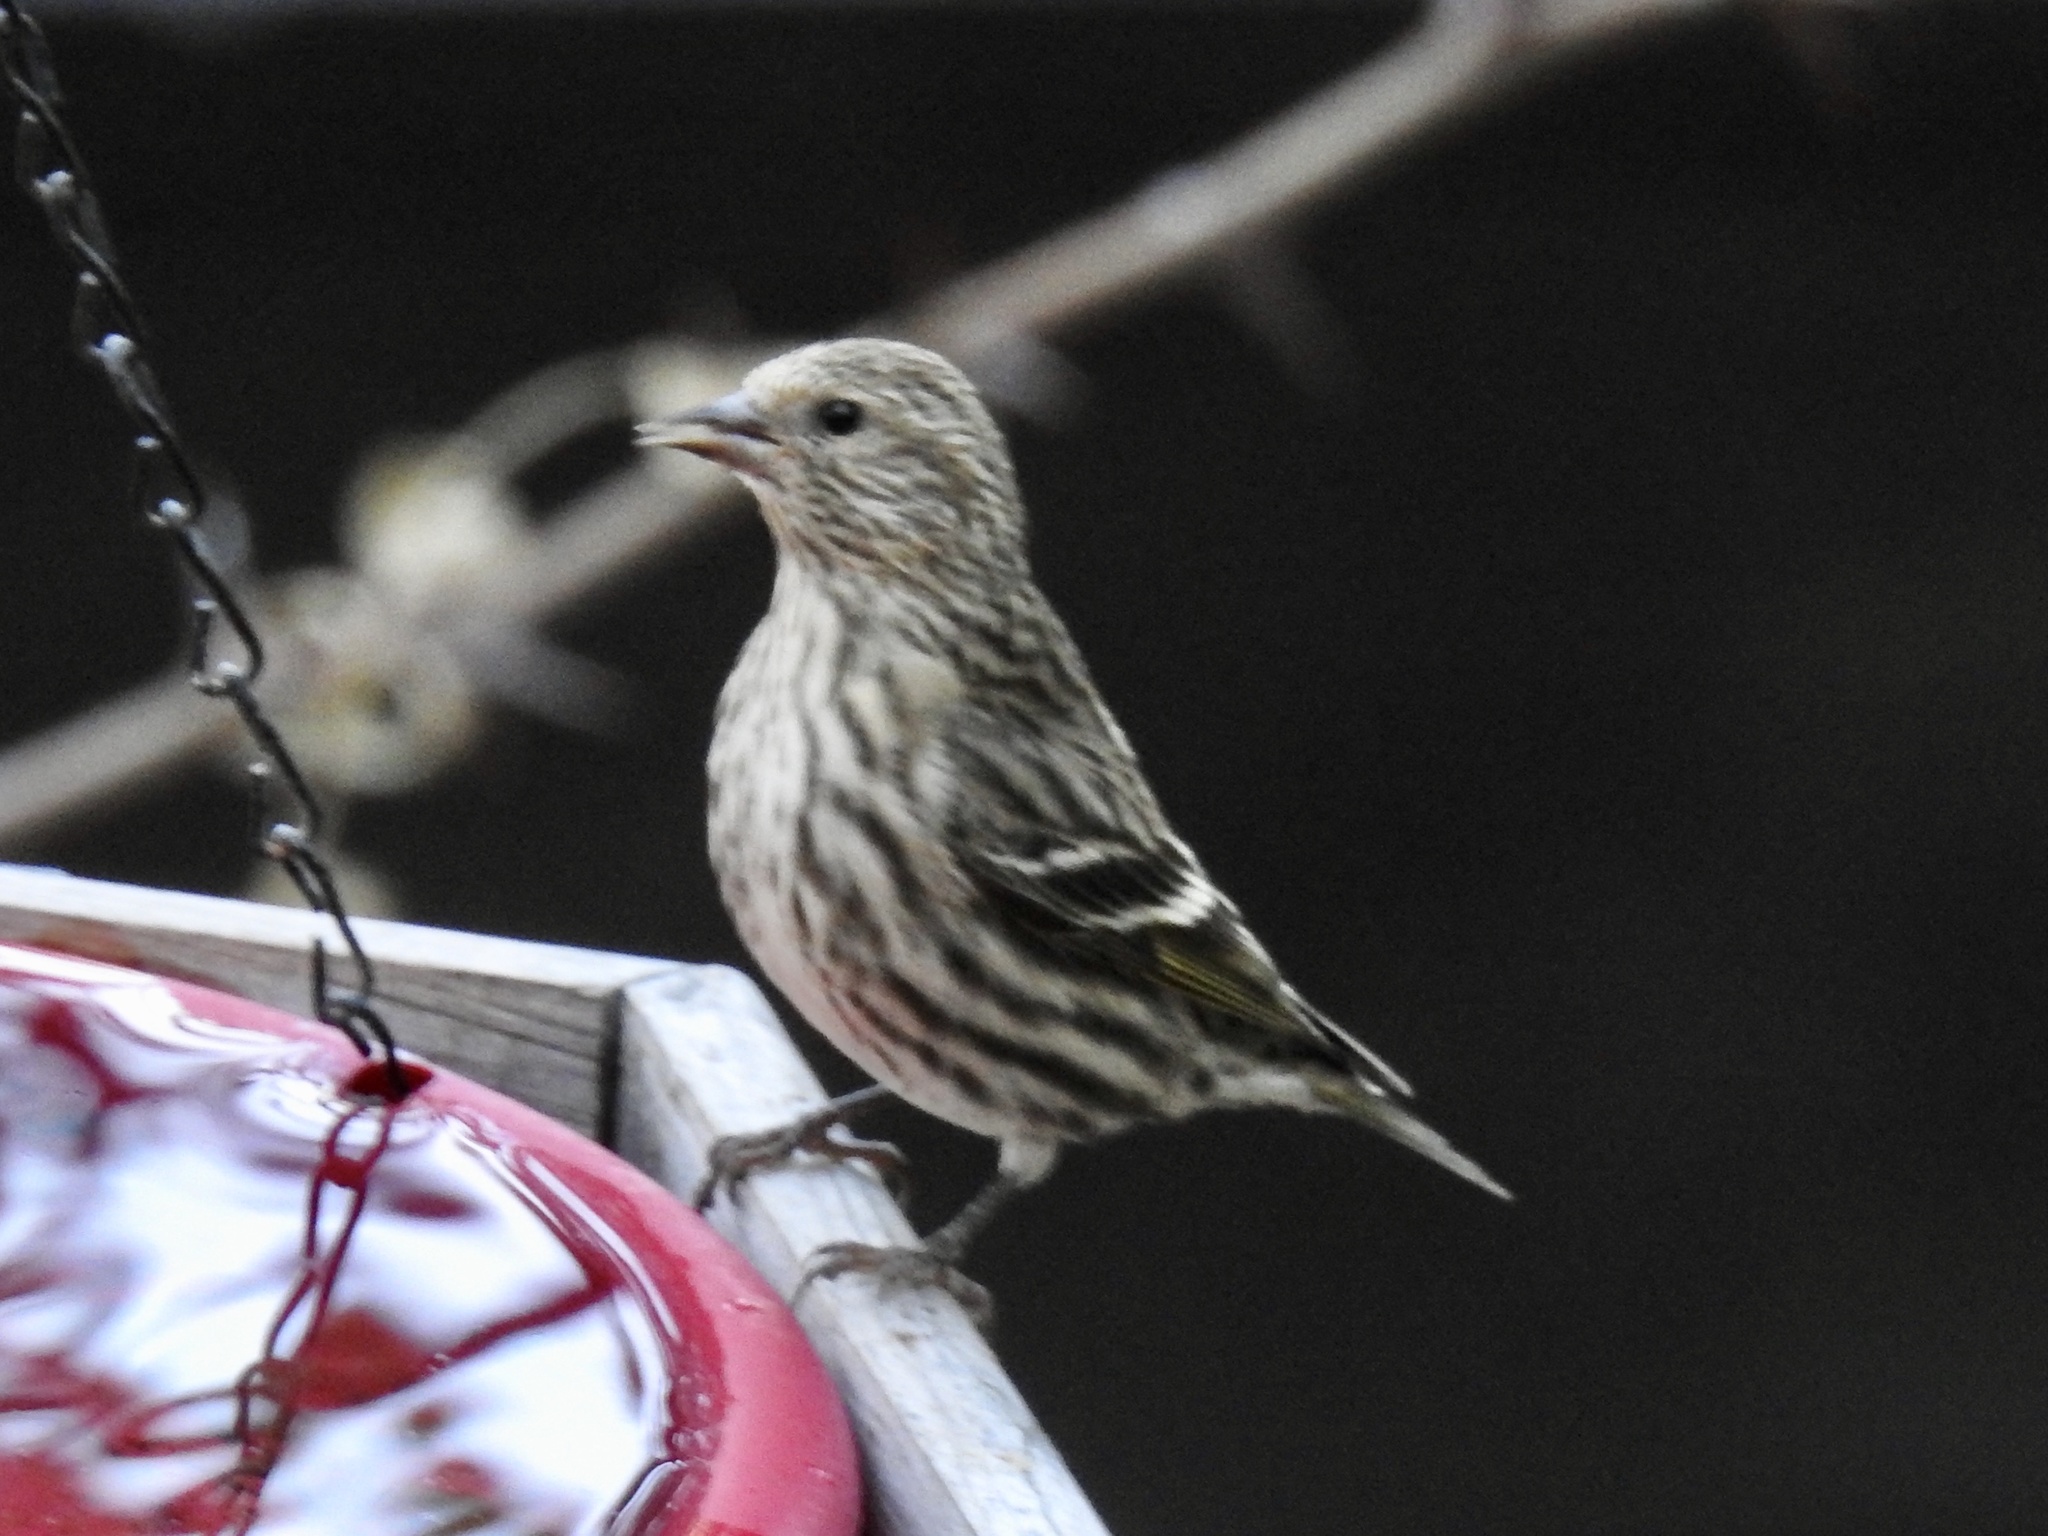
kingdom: Animalia
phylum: Chordata
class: Aves
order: Passeriformes
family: Fringillidae
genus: Spinus
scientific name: Spinus pinus
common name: Pine siskin
